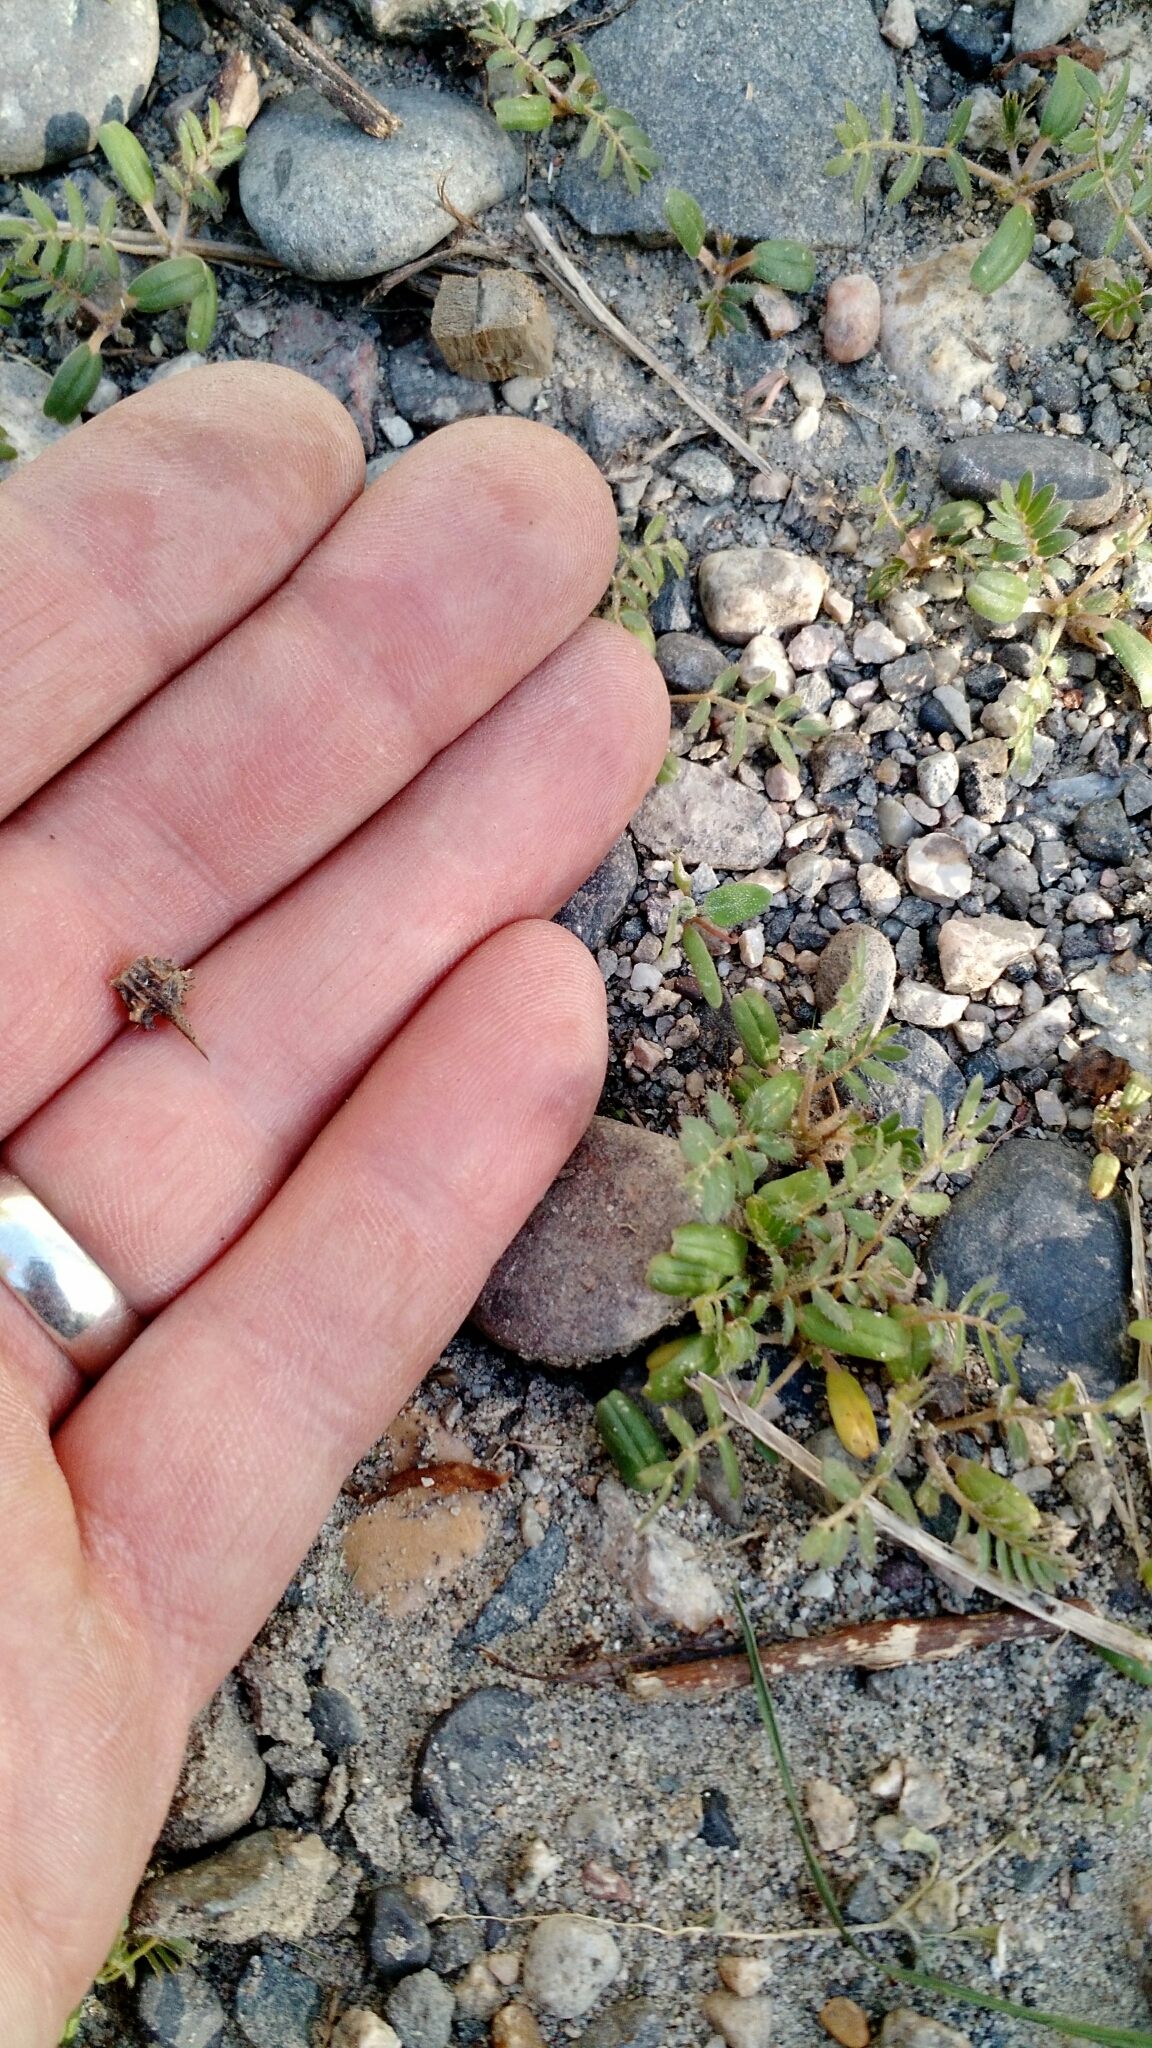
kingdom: Plantae
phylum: Tracheophyta
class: Magnoliopsida
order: Zygophyllales
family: Zygophyllaceae
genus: Tribulus
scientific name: Tribulus terrestris
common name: Puncturevine
